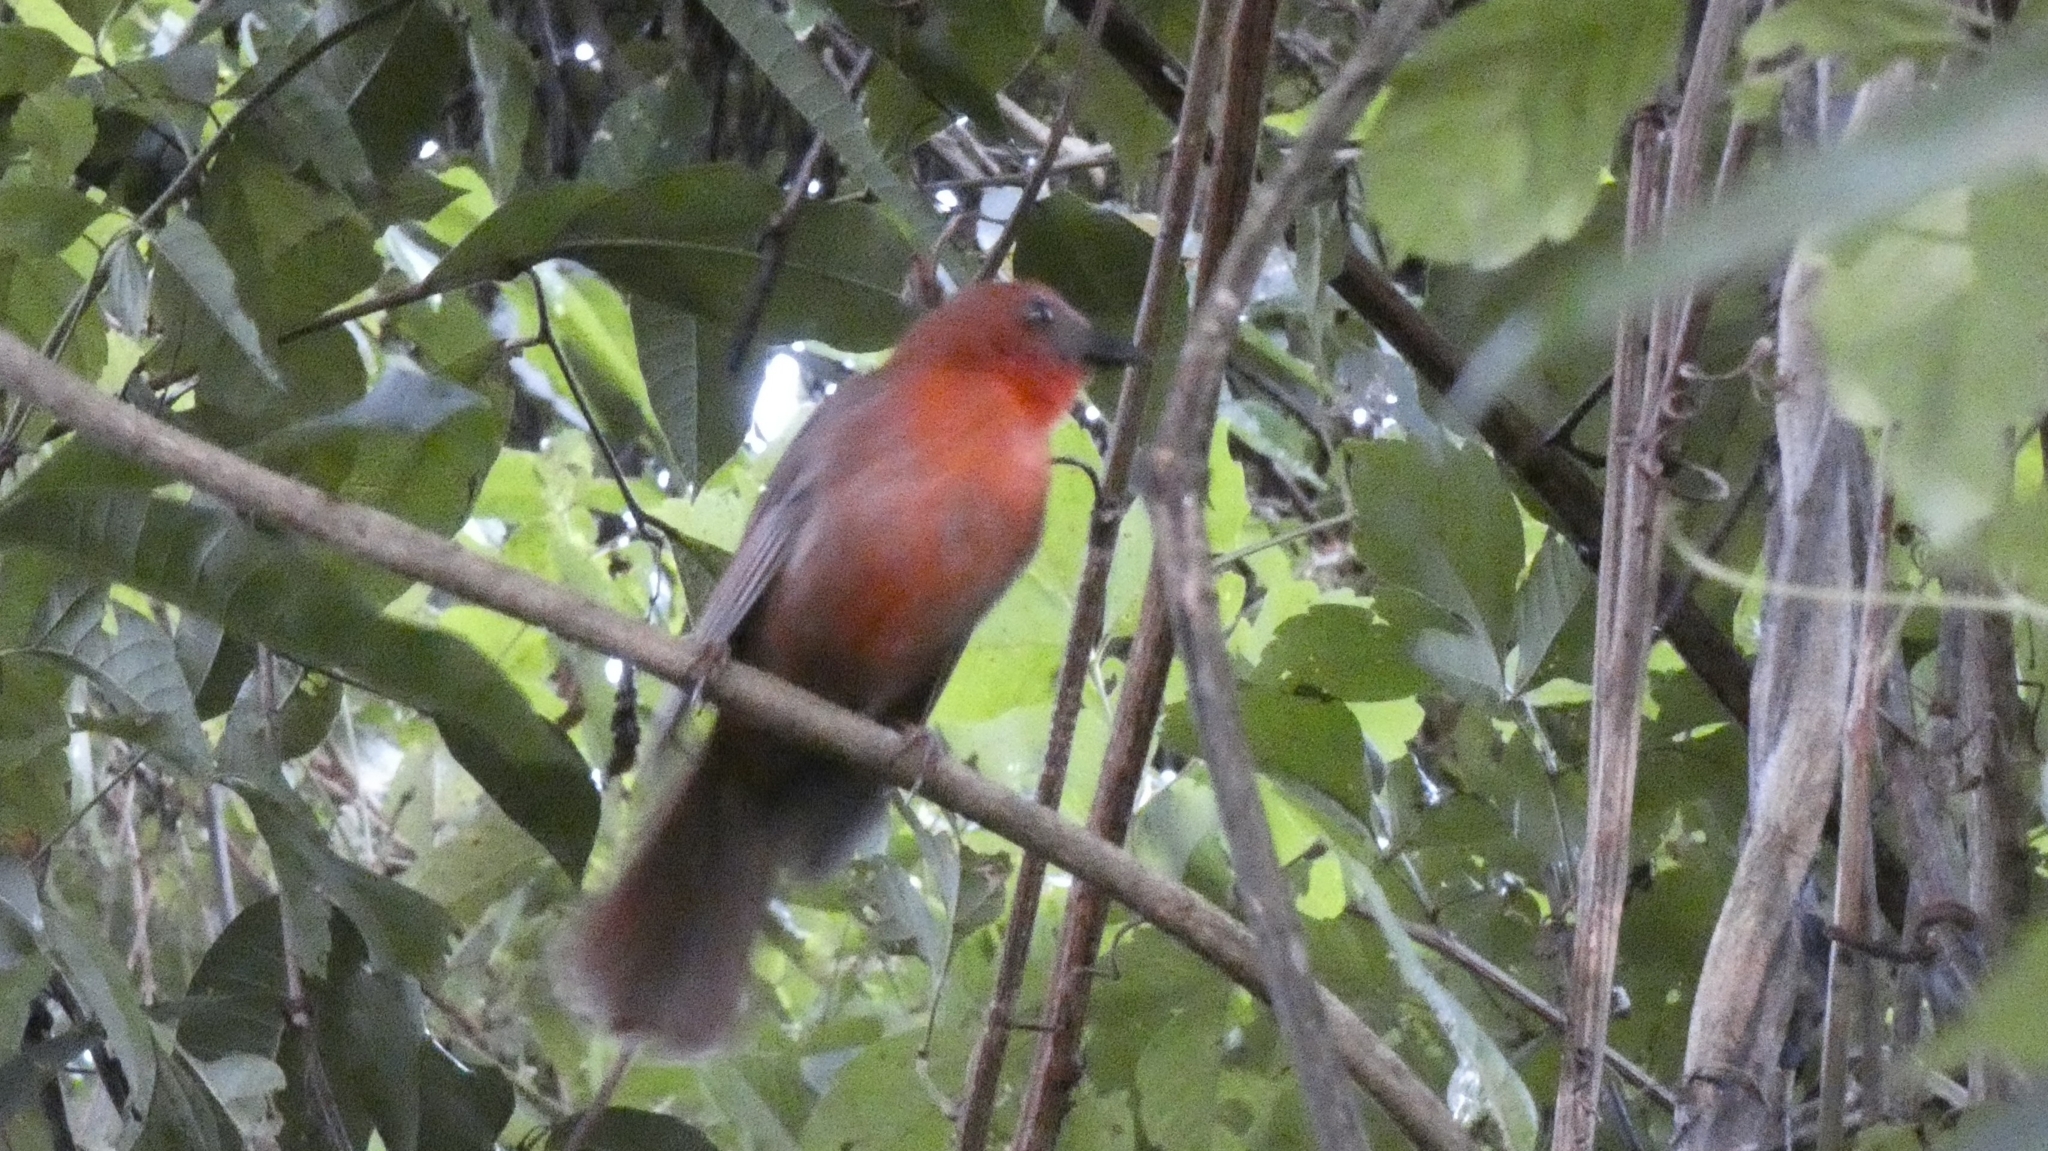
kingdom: Animalia
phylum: Chordata
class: Aves
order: Passeriformes
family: Cardinalidae
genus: Habia
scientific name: Habia fuscicauda
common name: Red-throated ant-tanager
